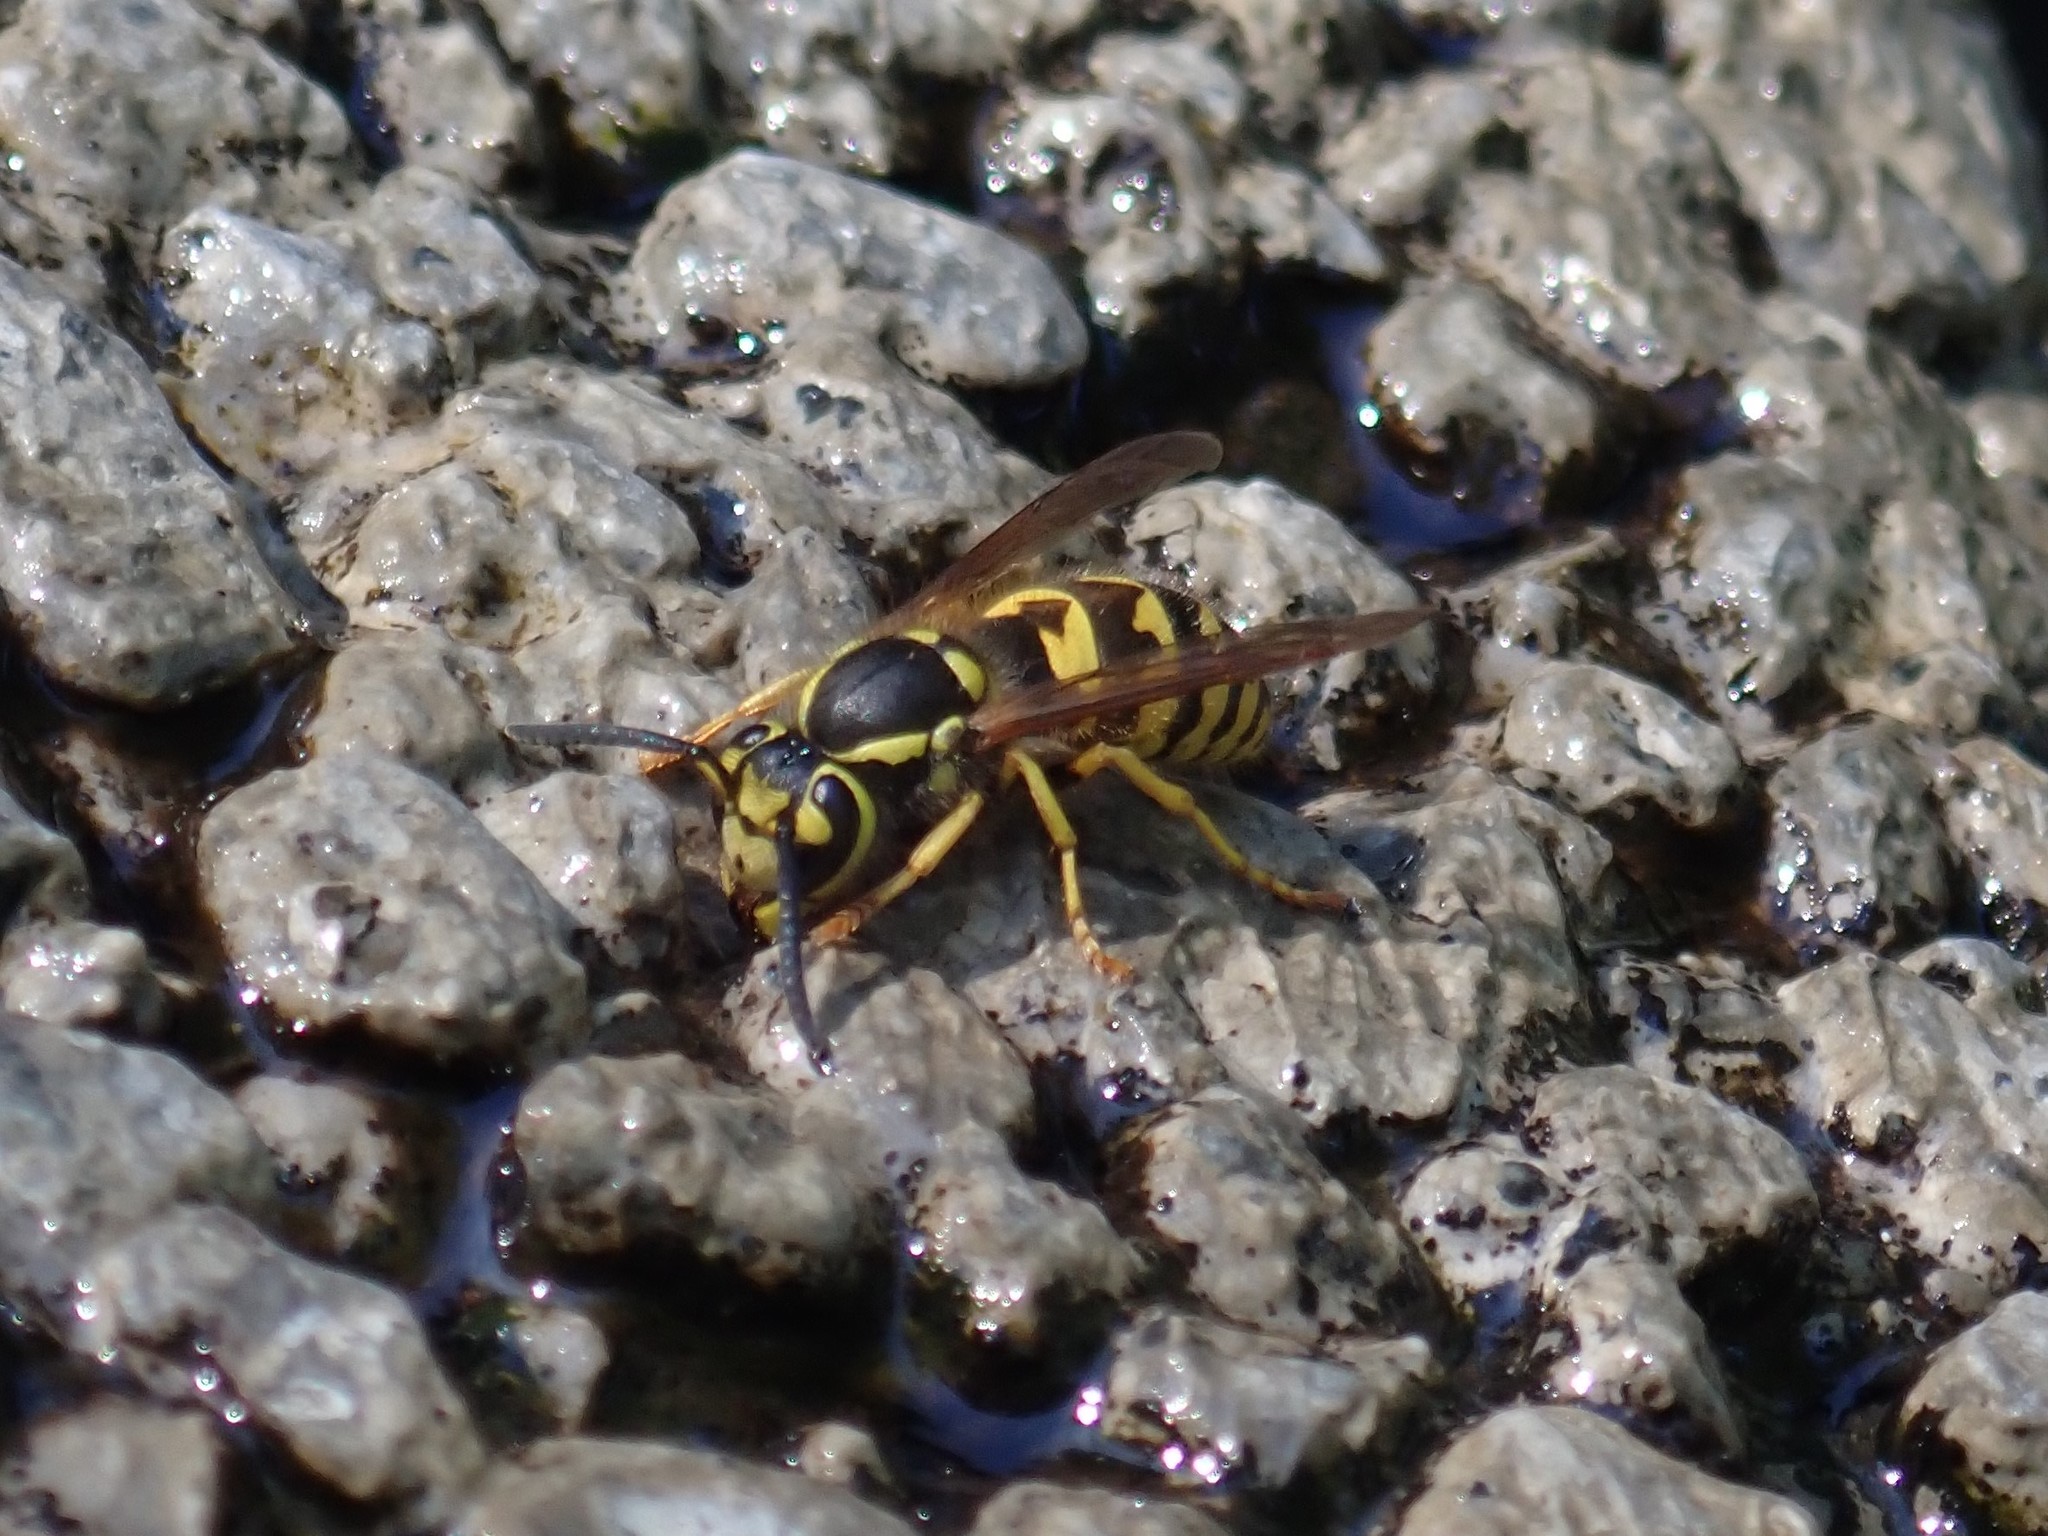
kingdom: Animalia
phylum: Arthropoda
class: Insecta
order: Hymenoptera
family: Vespidae
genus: Vespula
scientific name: Vespula pensylvanica
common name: Western yellowjacket
